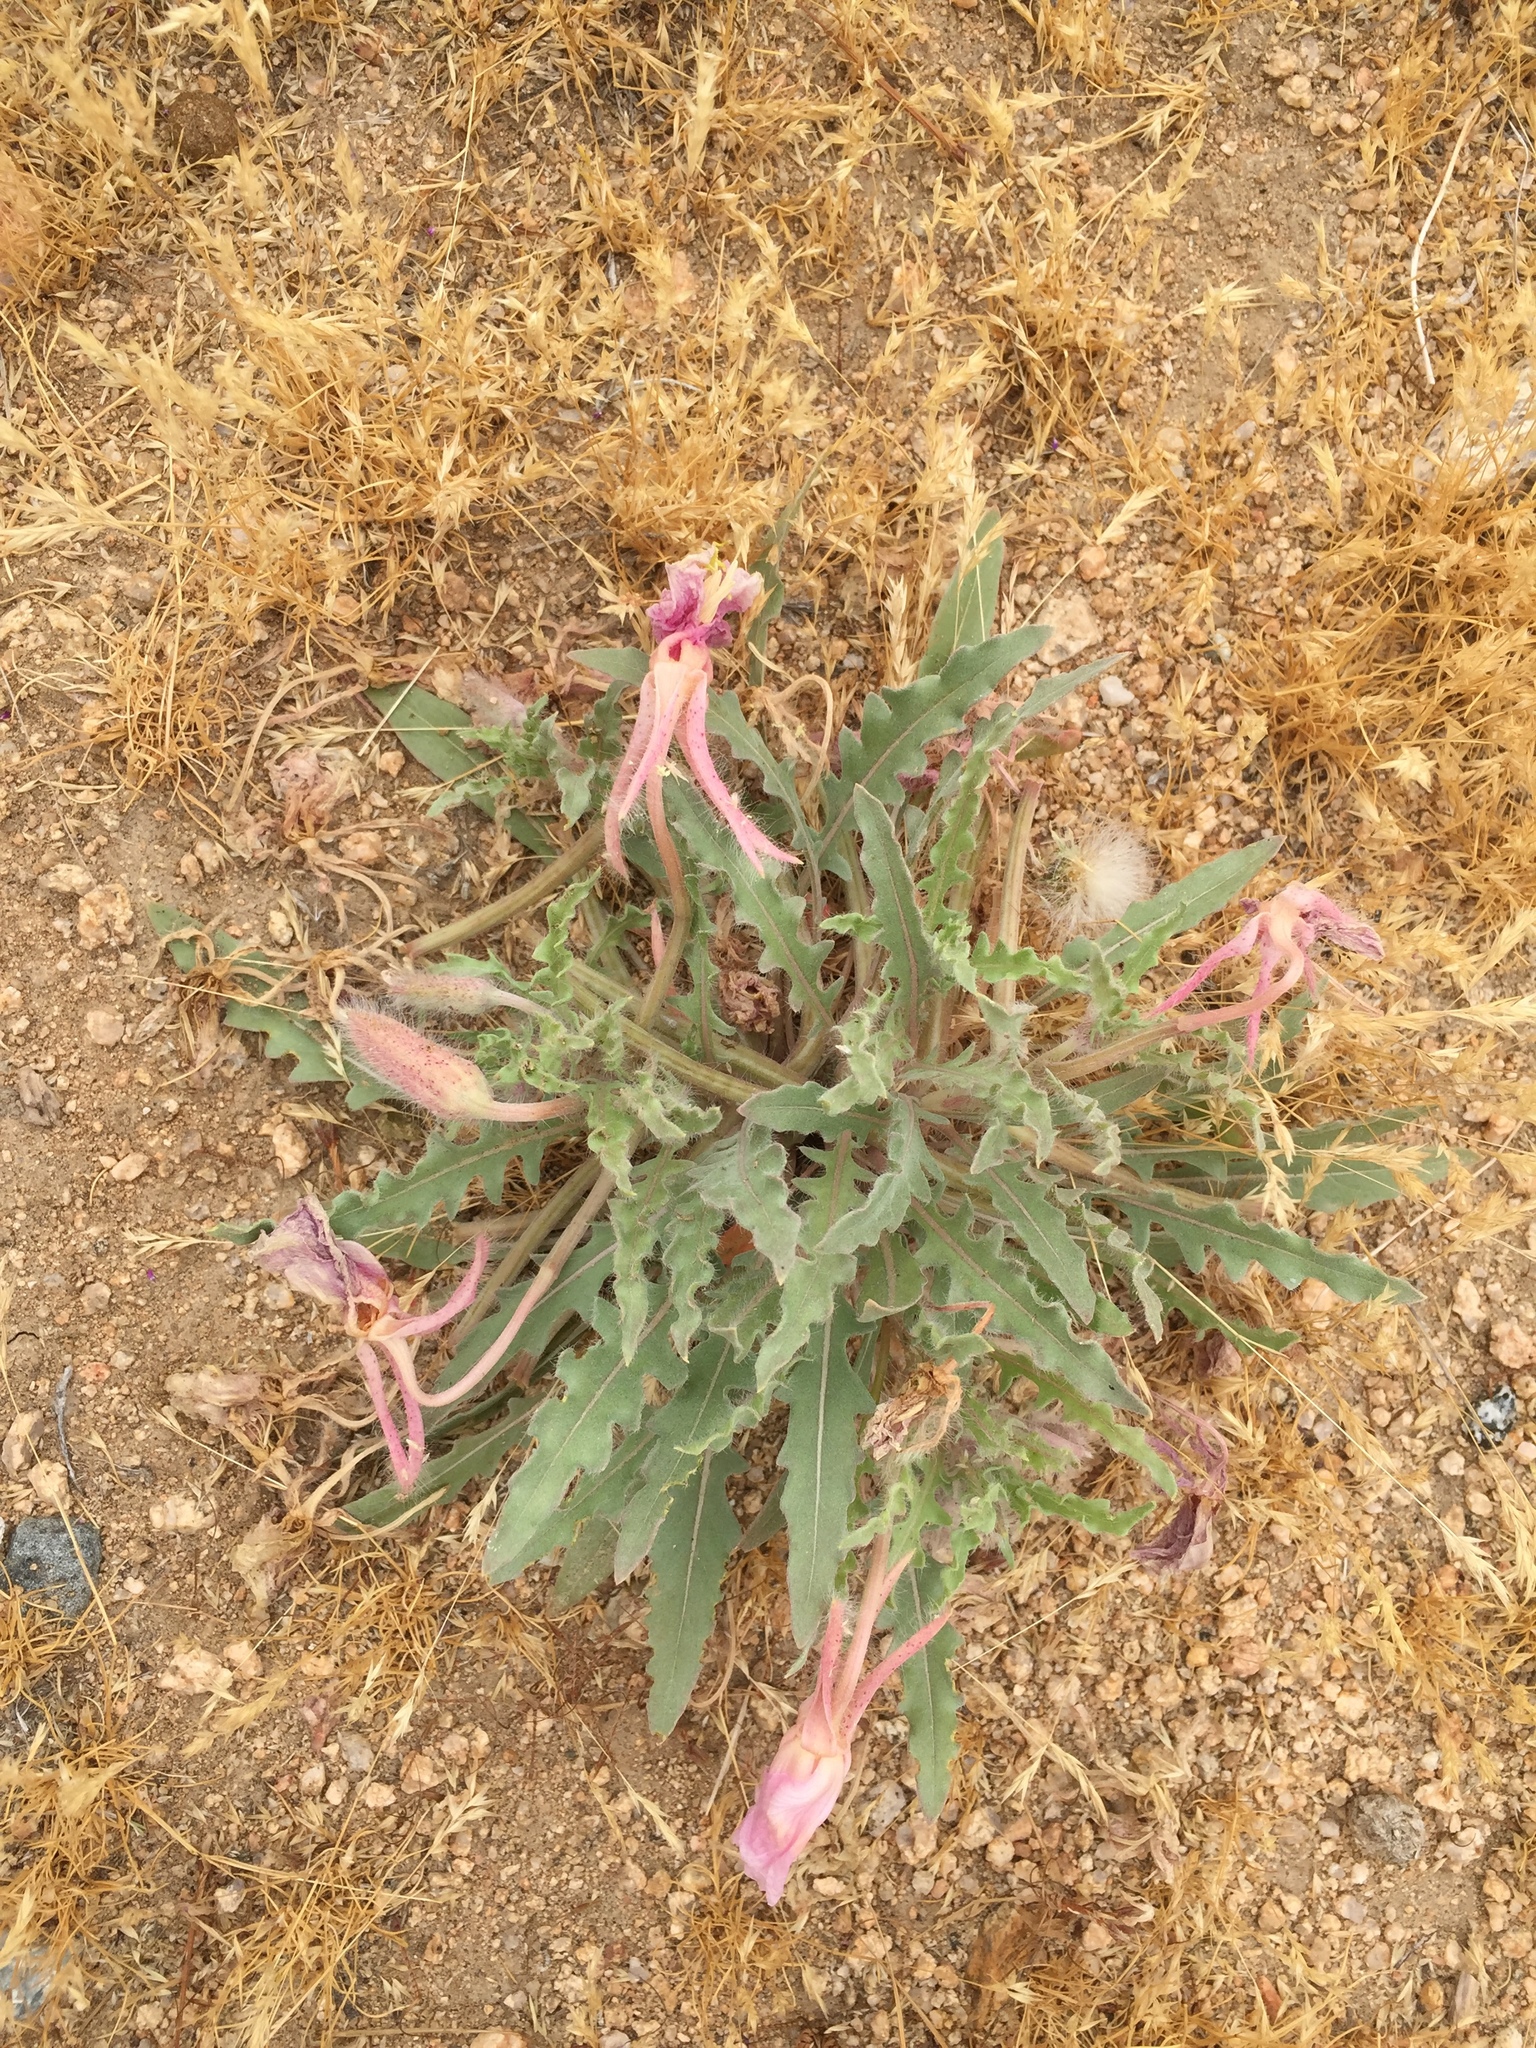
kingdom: Plantae
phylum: Tracheophyta
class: Magnoliopsida
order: Myrtales
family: Onagraceae
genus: Oenothera
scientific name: Oenothera californica
